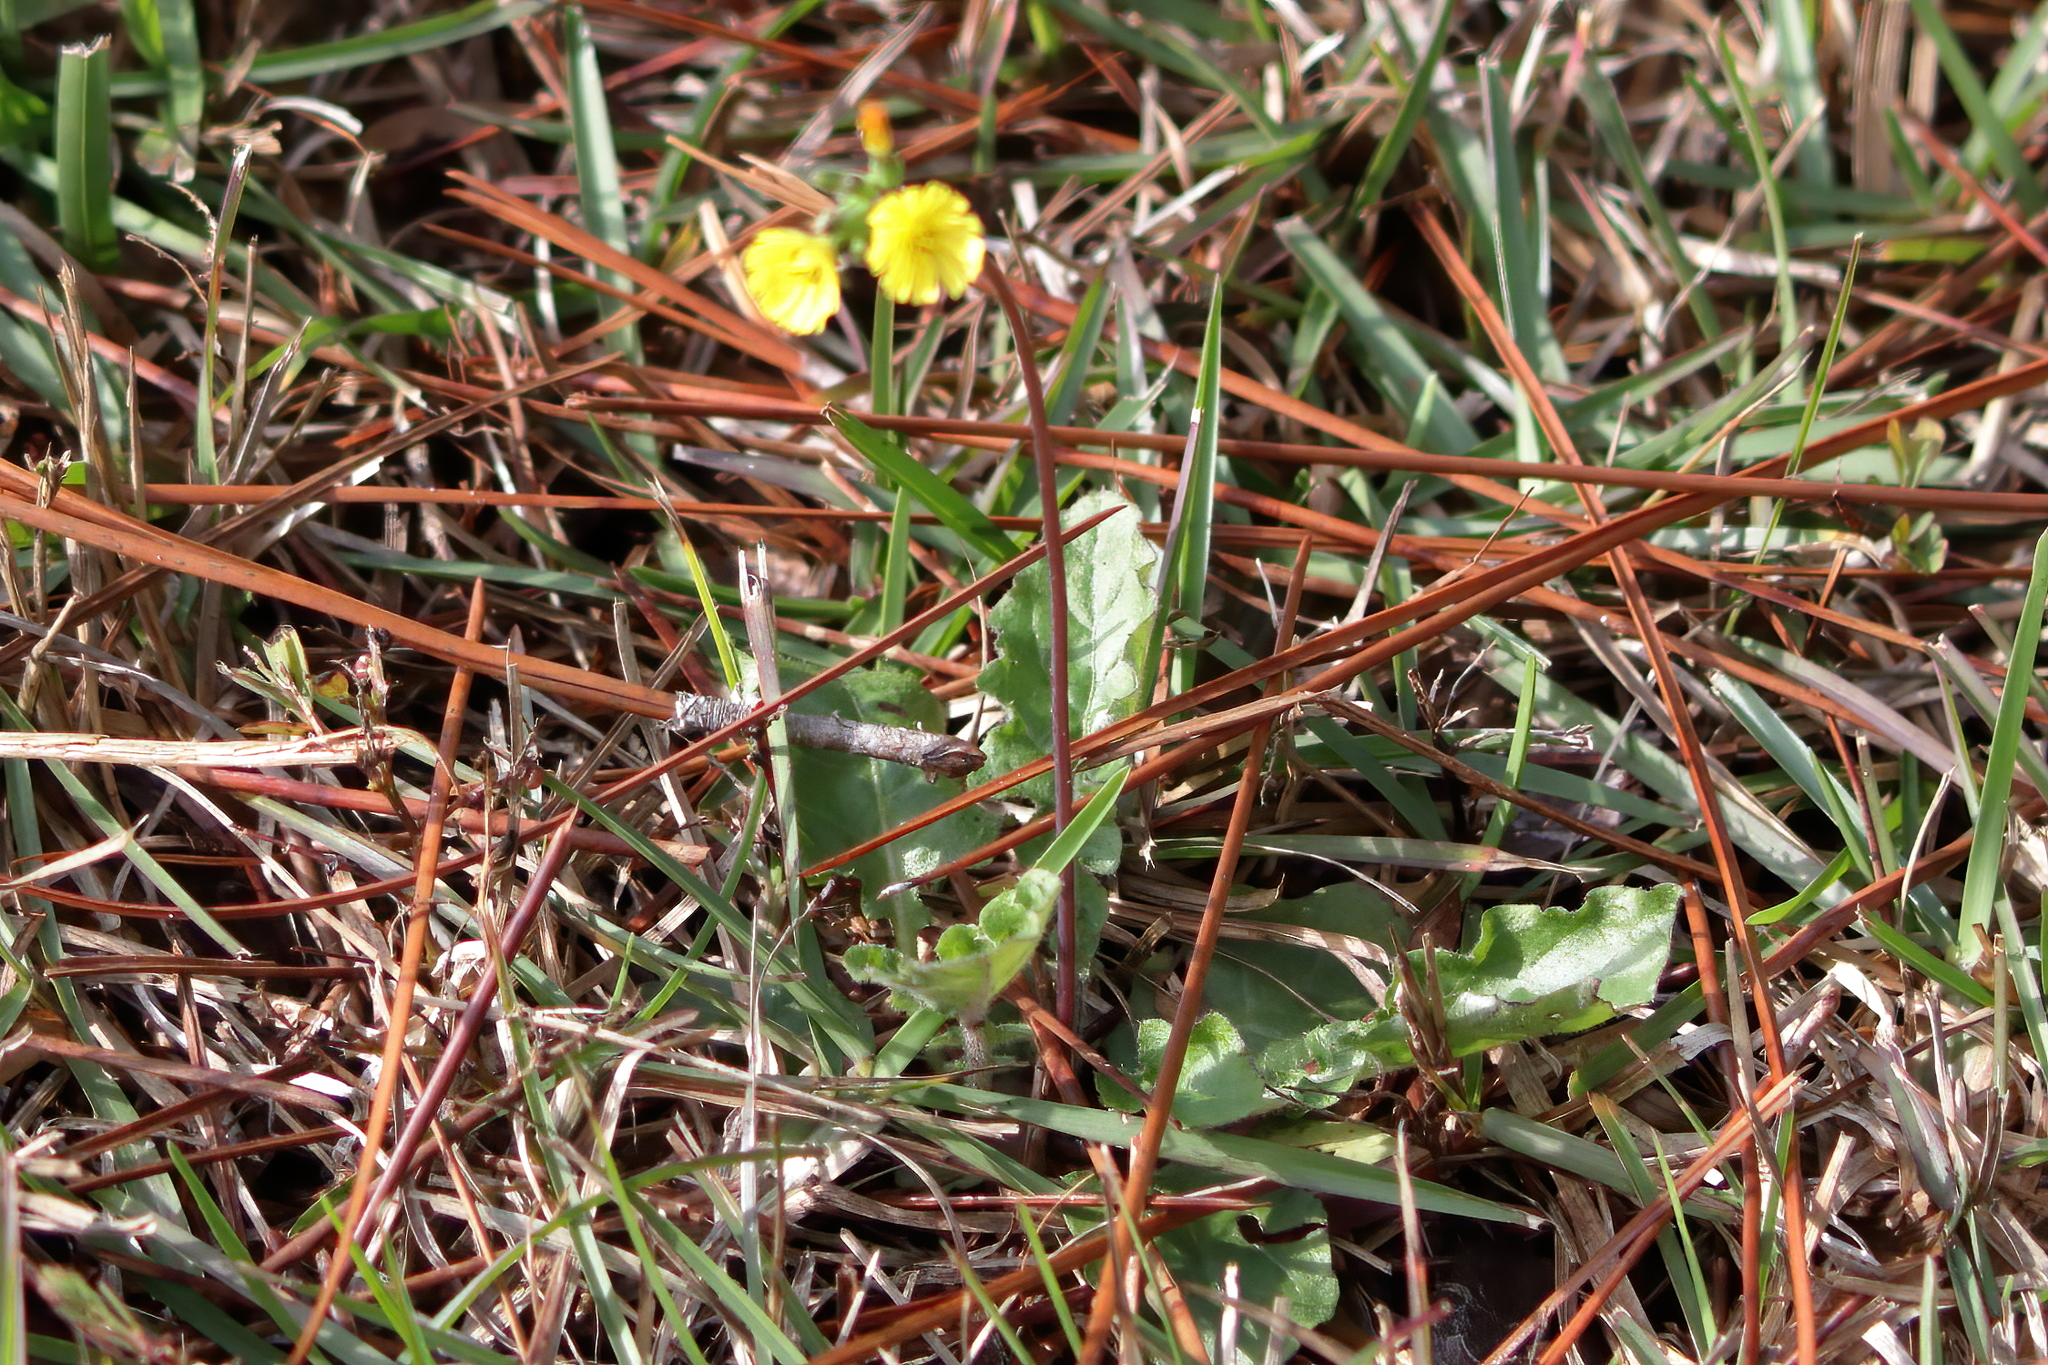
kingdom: Plantae
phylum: Tracheophyta
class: Magnoliopsida
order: Asterales
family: Asteraceae
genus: Youngia
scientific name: Youngia japonica
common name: Oriental false hawksbeard
